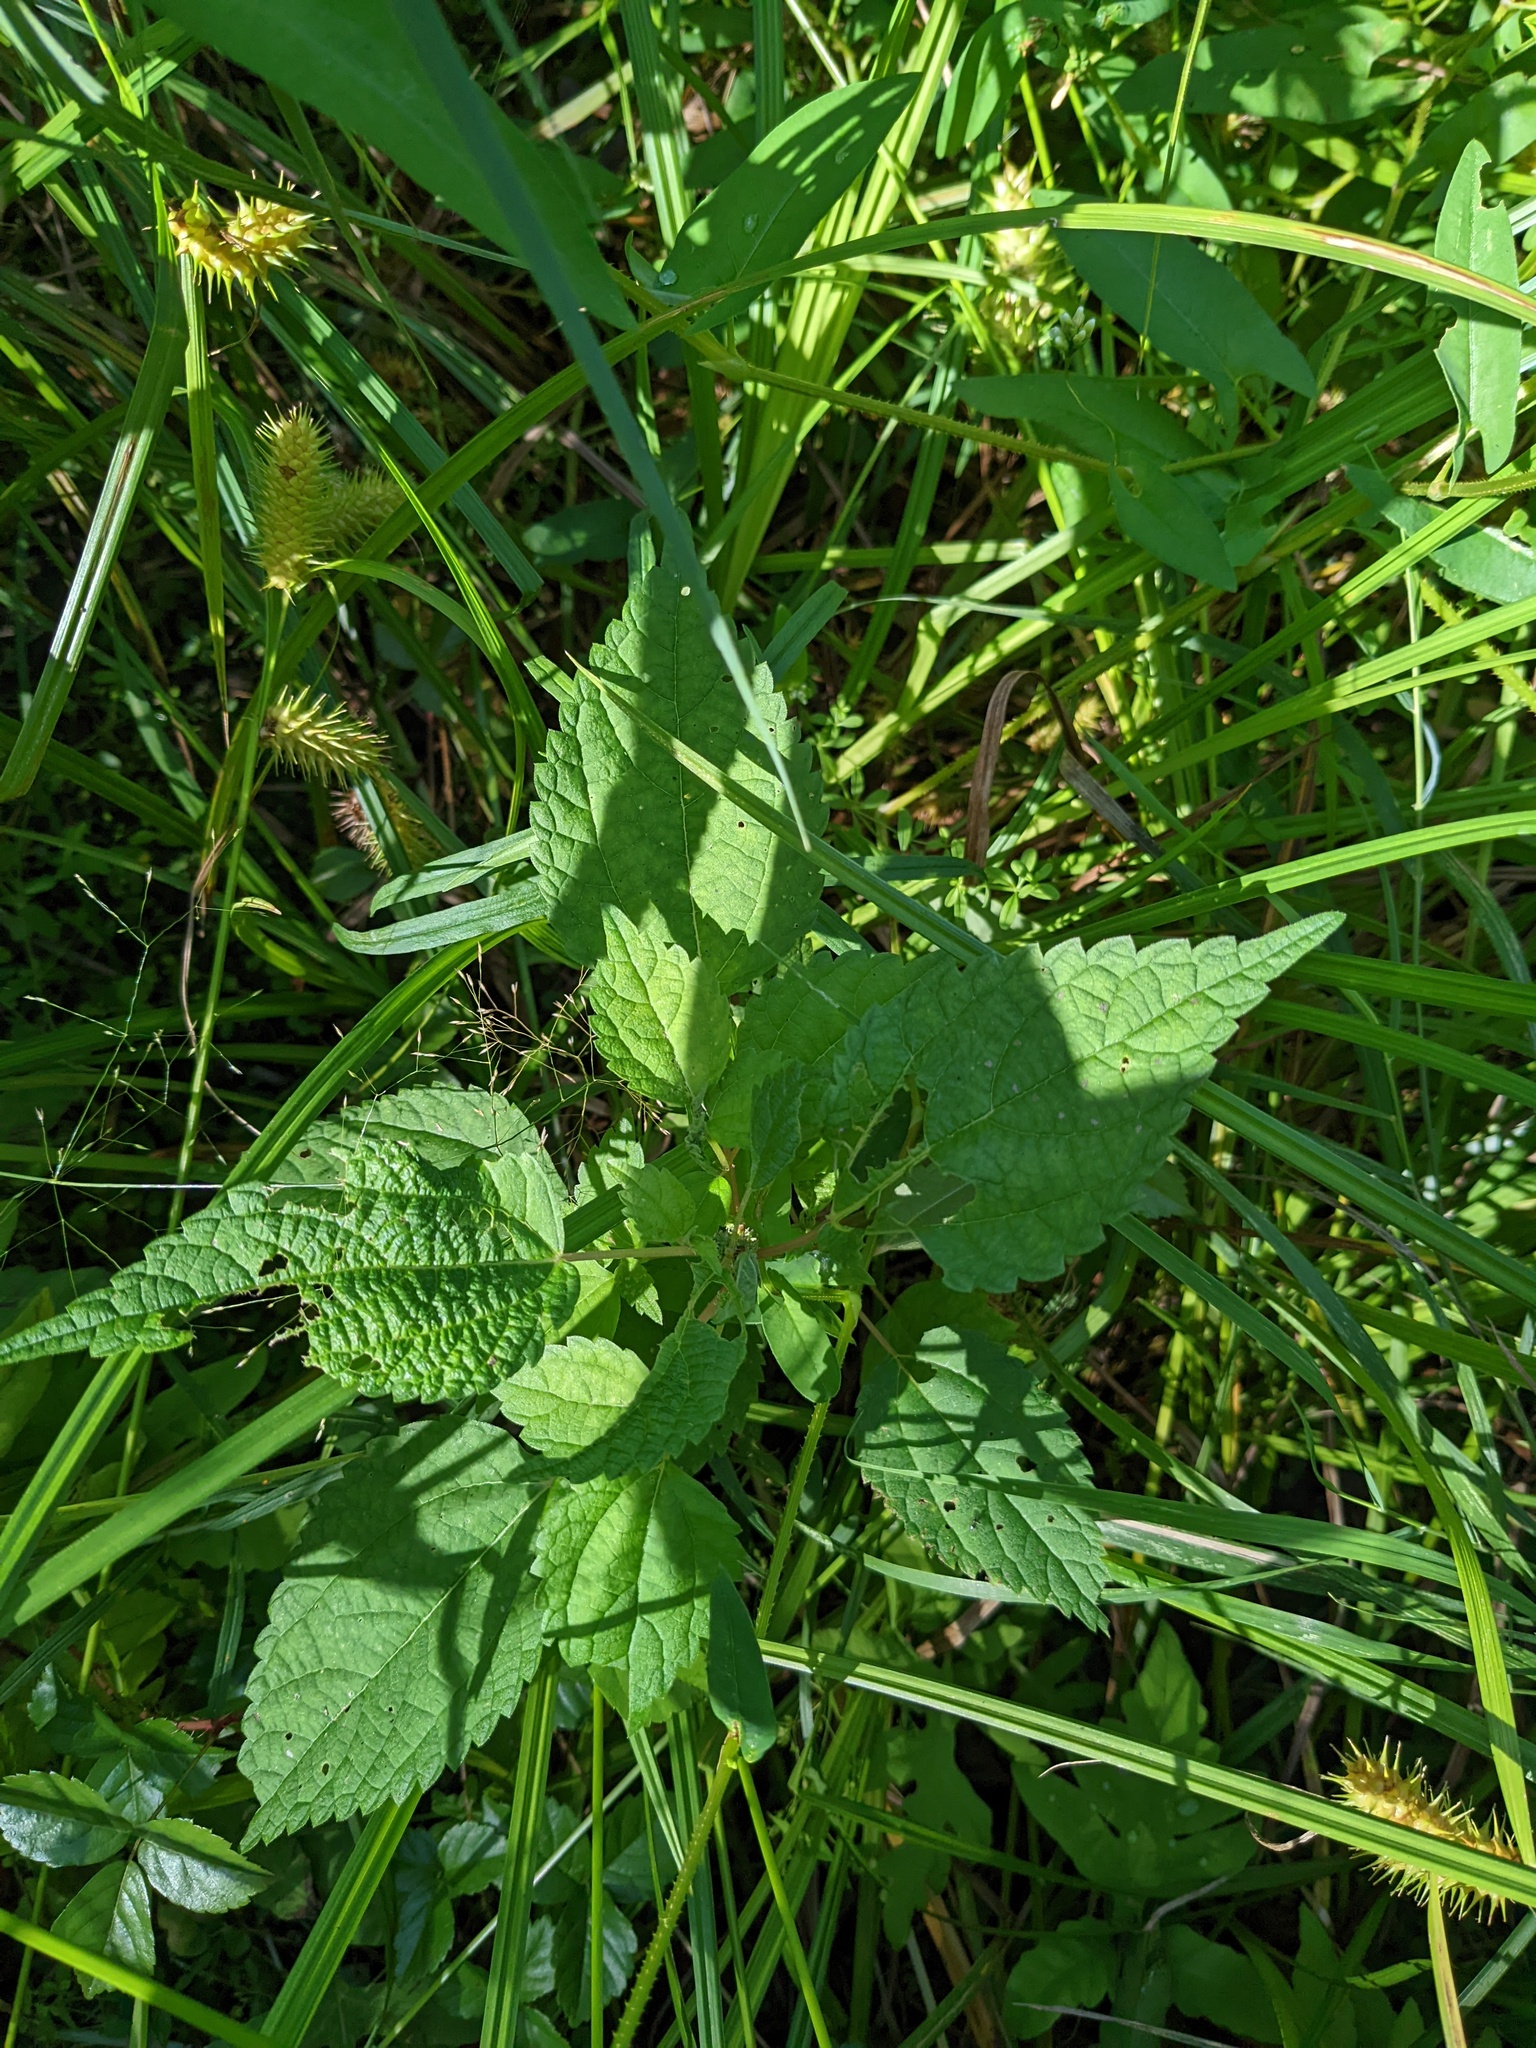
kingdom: Plantae
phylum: Tracheophyta
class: Magnoliopsida
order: Rosales
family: Urticaceae
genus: Boehmeria
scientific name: Boehmeria cylindrica
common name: Bog-hemp
